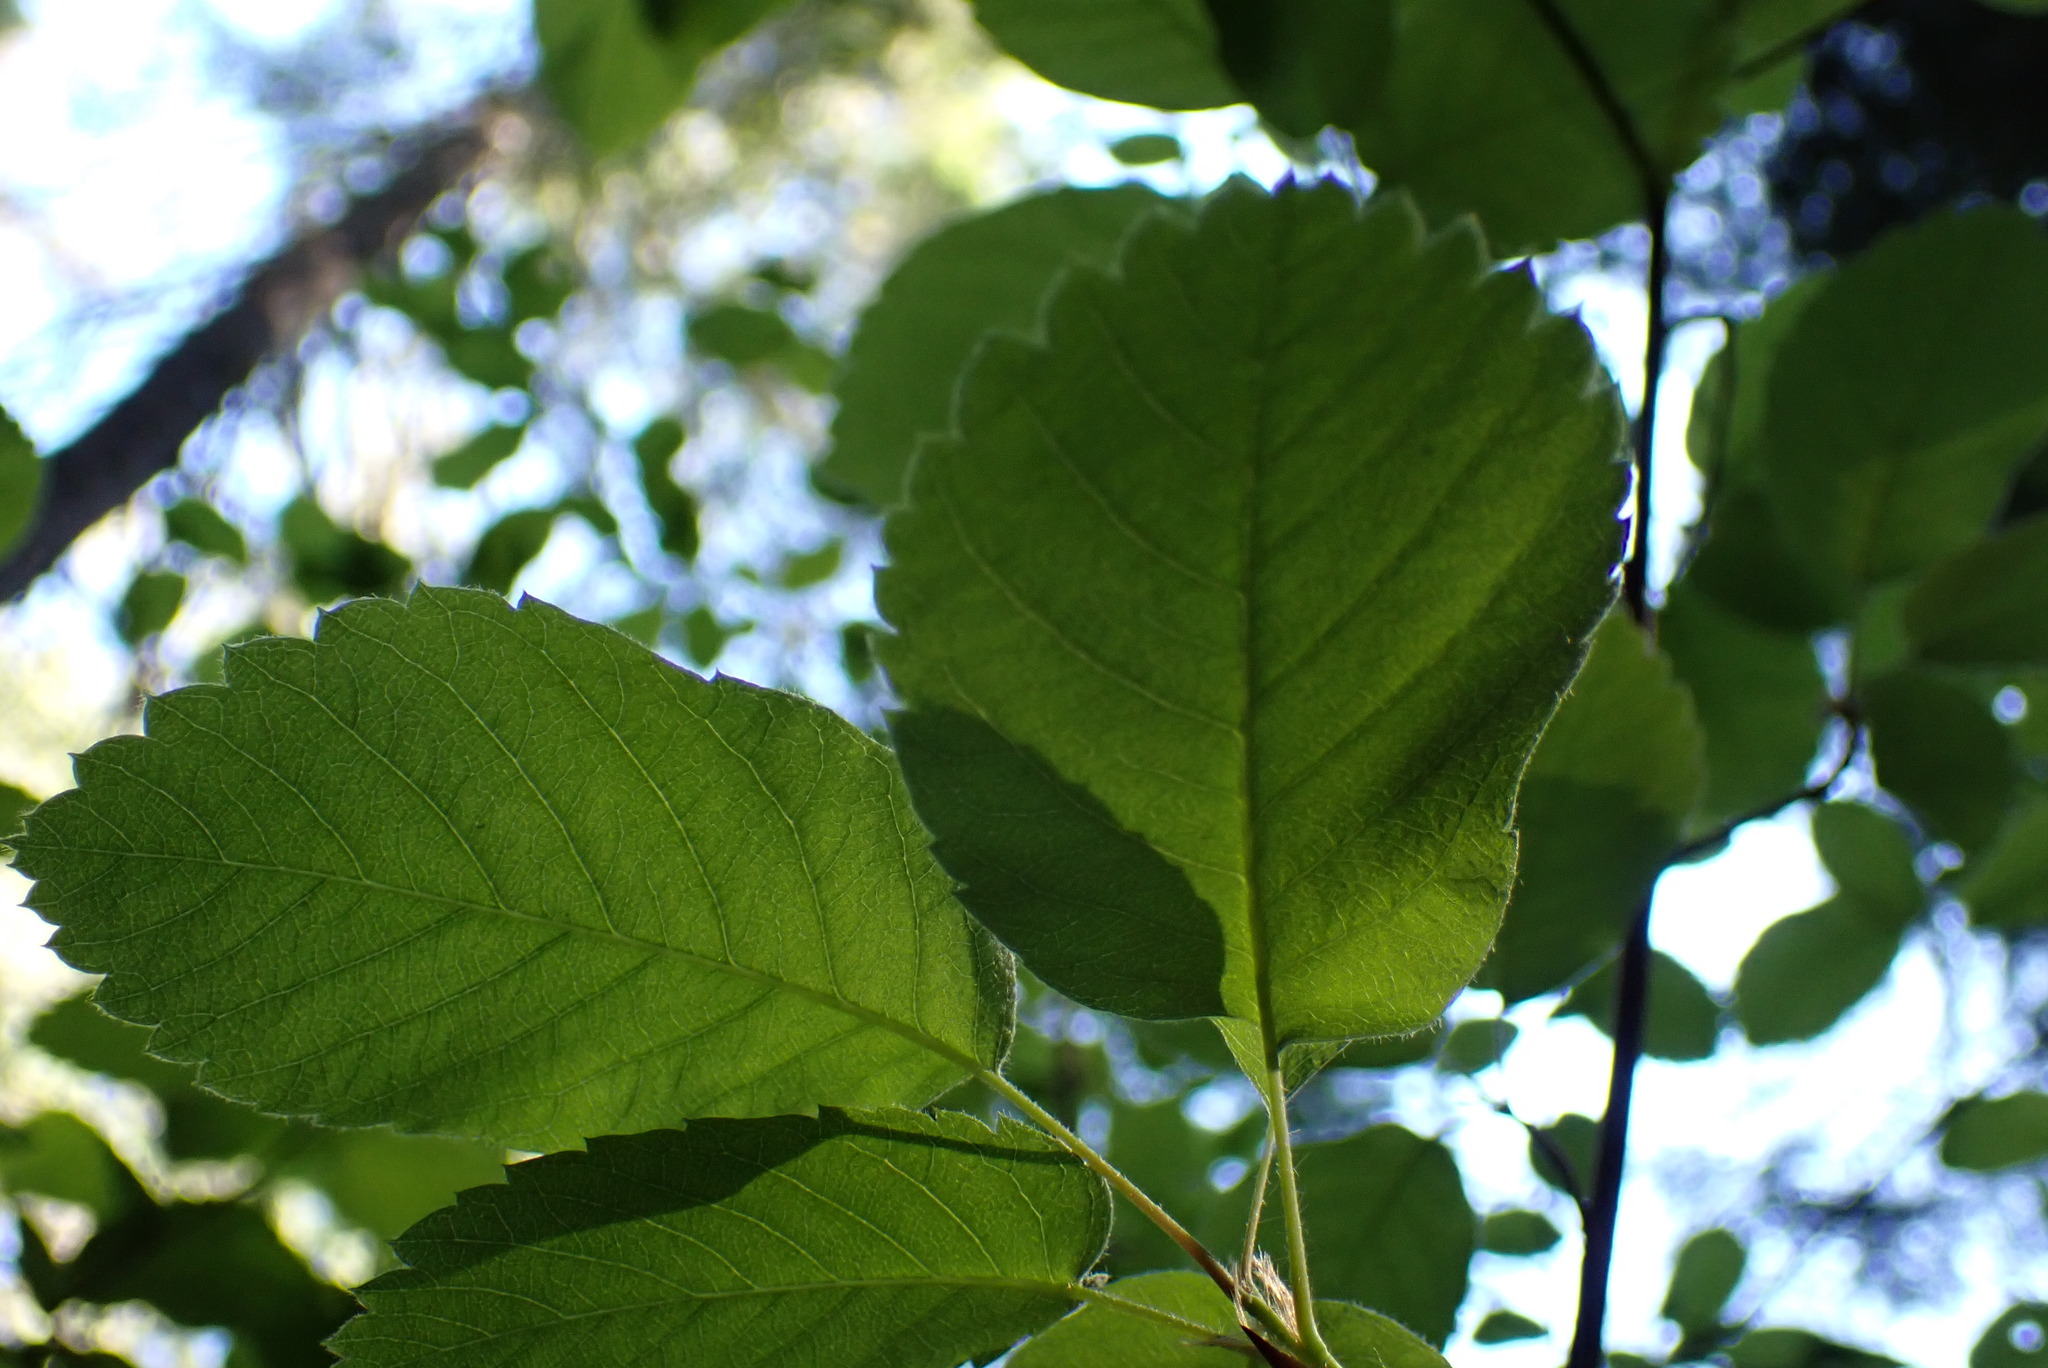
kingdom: Plantae
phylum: Tracheophyta
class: Magnoliopsida
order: Rosales
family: Rosaceae
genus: Amelanchier
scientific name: Amelanchier alnifolia
